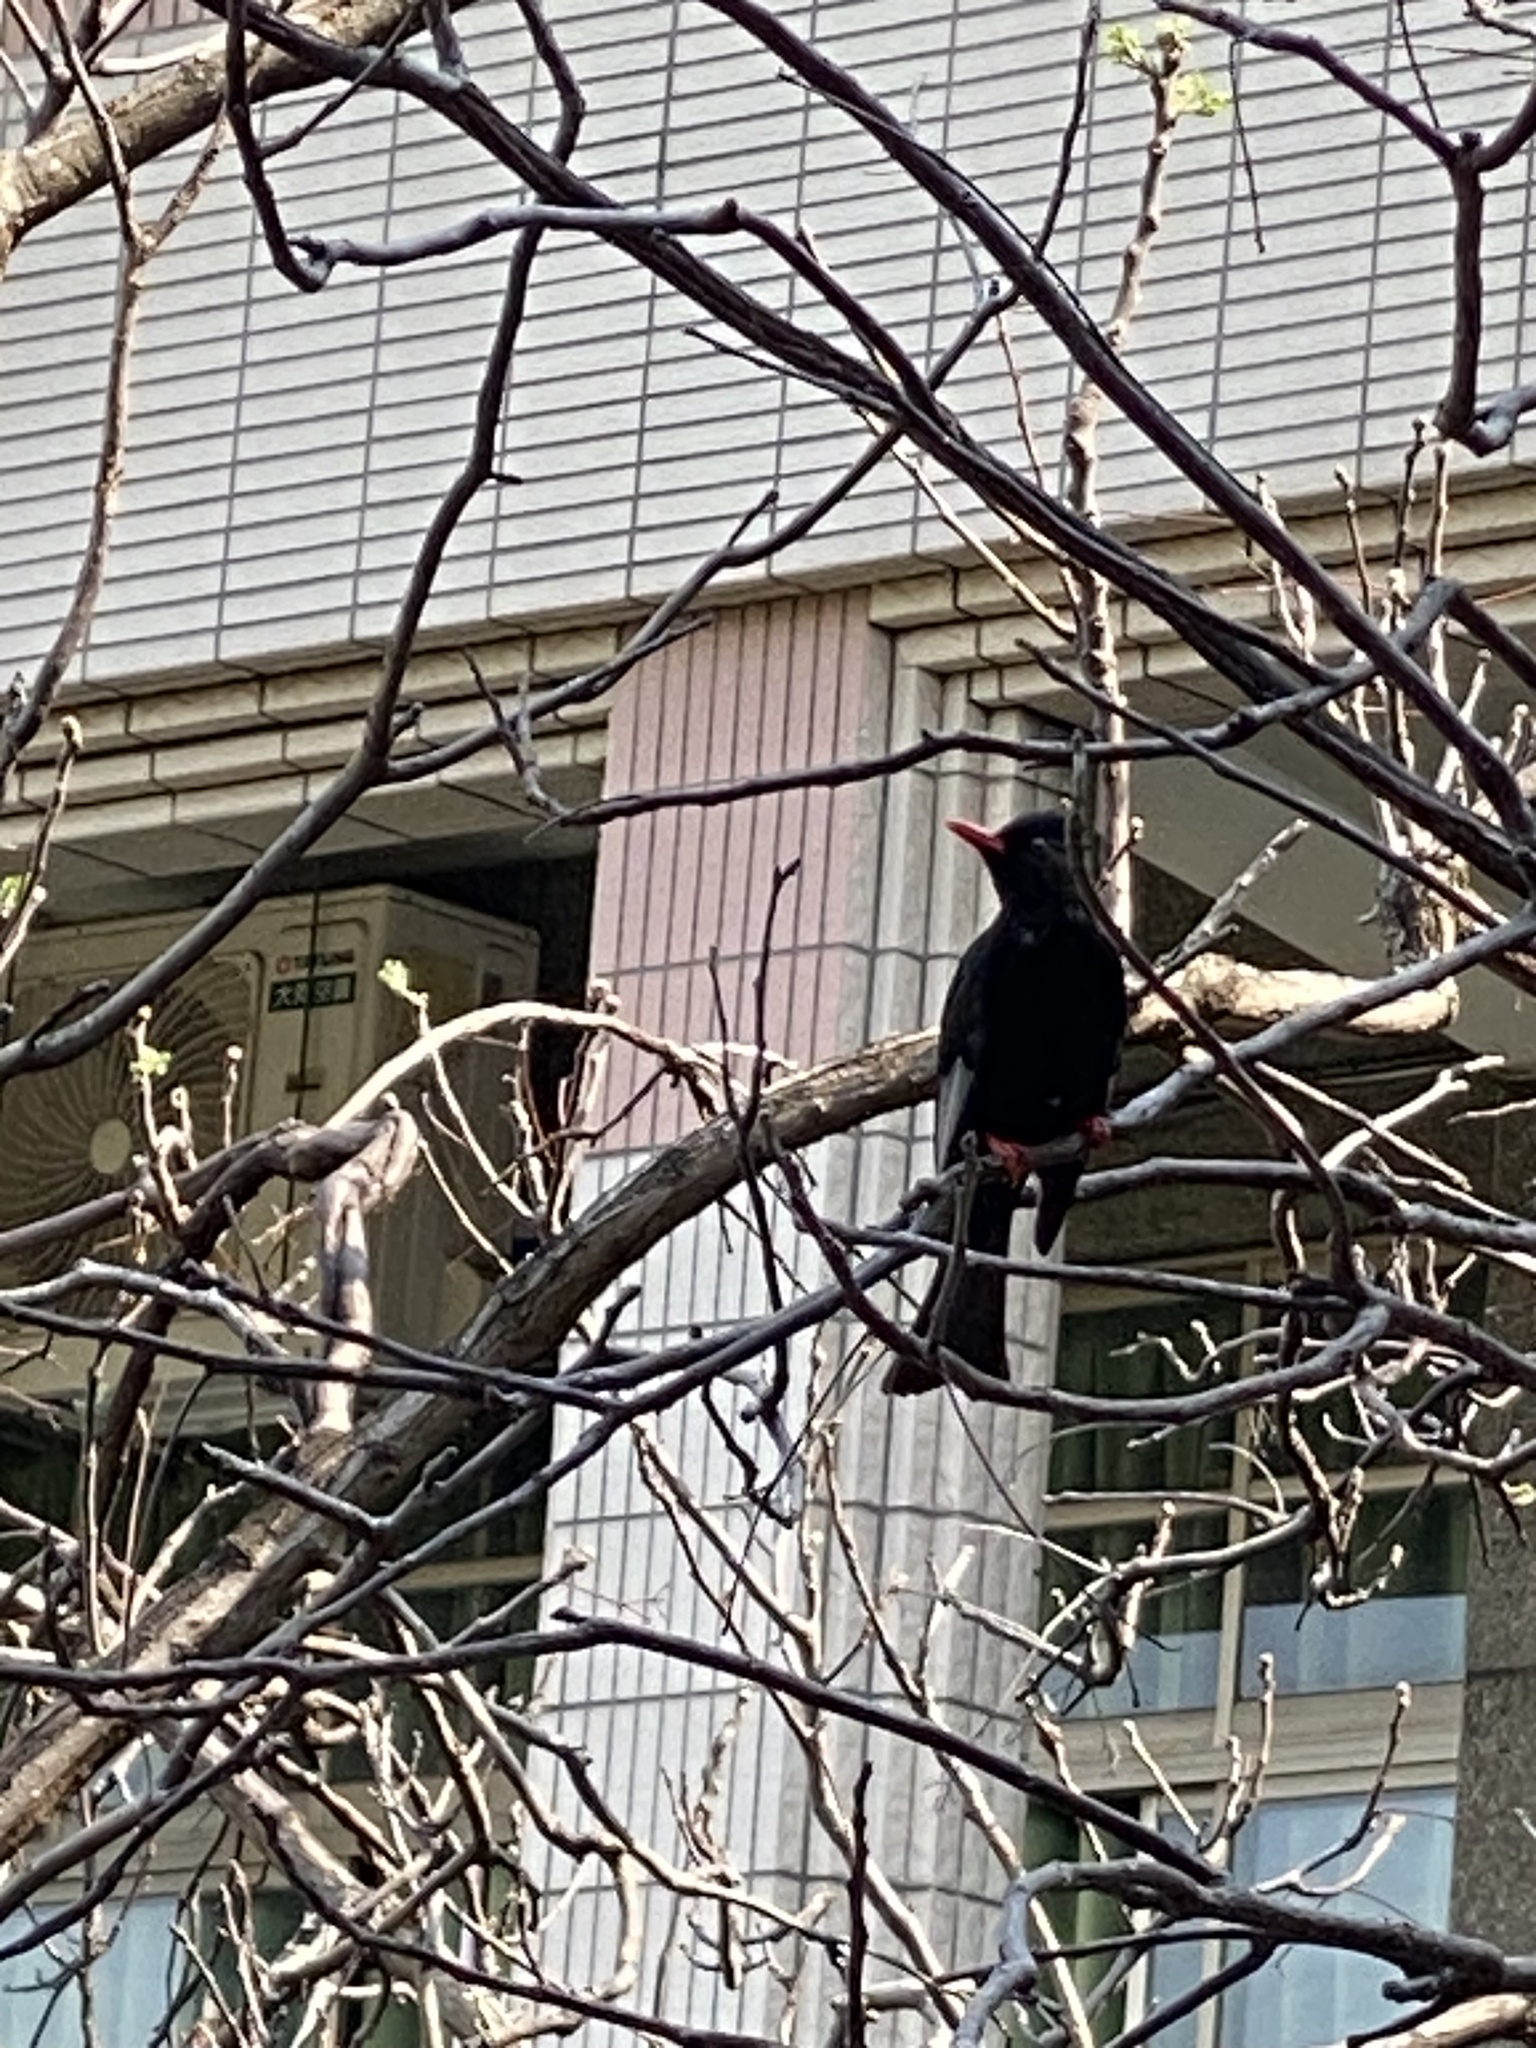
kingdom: Animalia
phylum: Chordata
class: Aves
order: Passeriformes
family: Pycnonotidae
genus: Hypsipetes
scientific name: Hypsipetes leucocephalus
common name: Black bulbul
